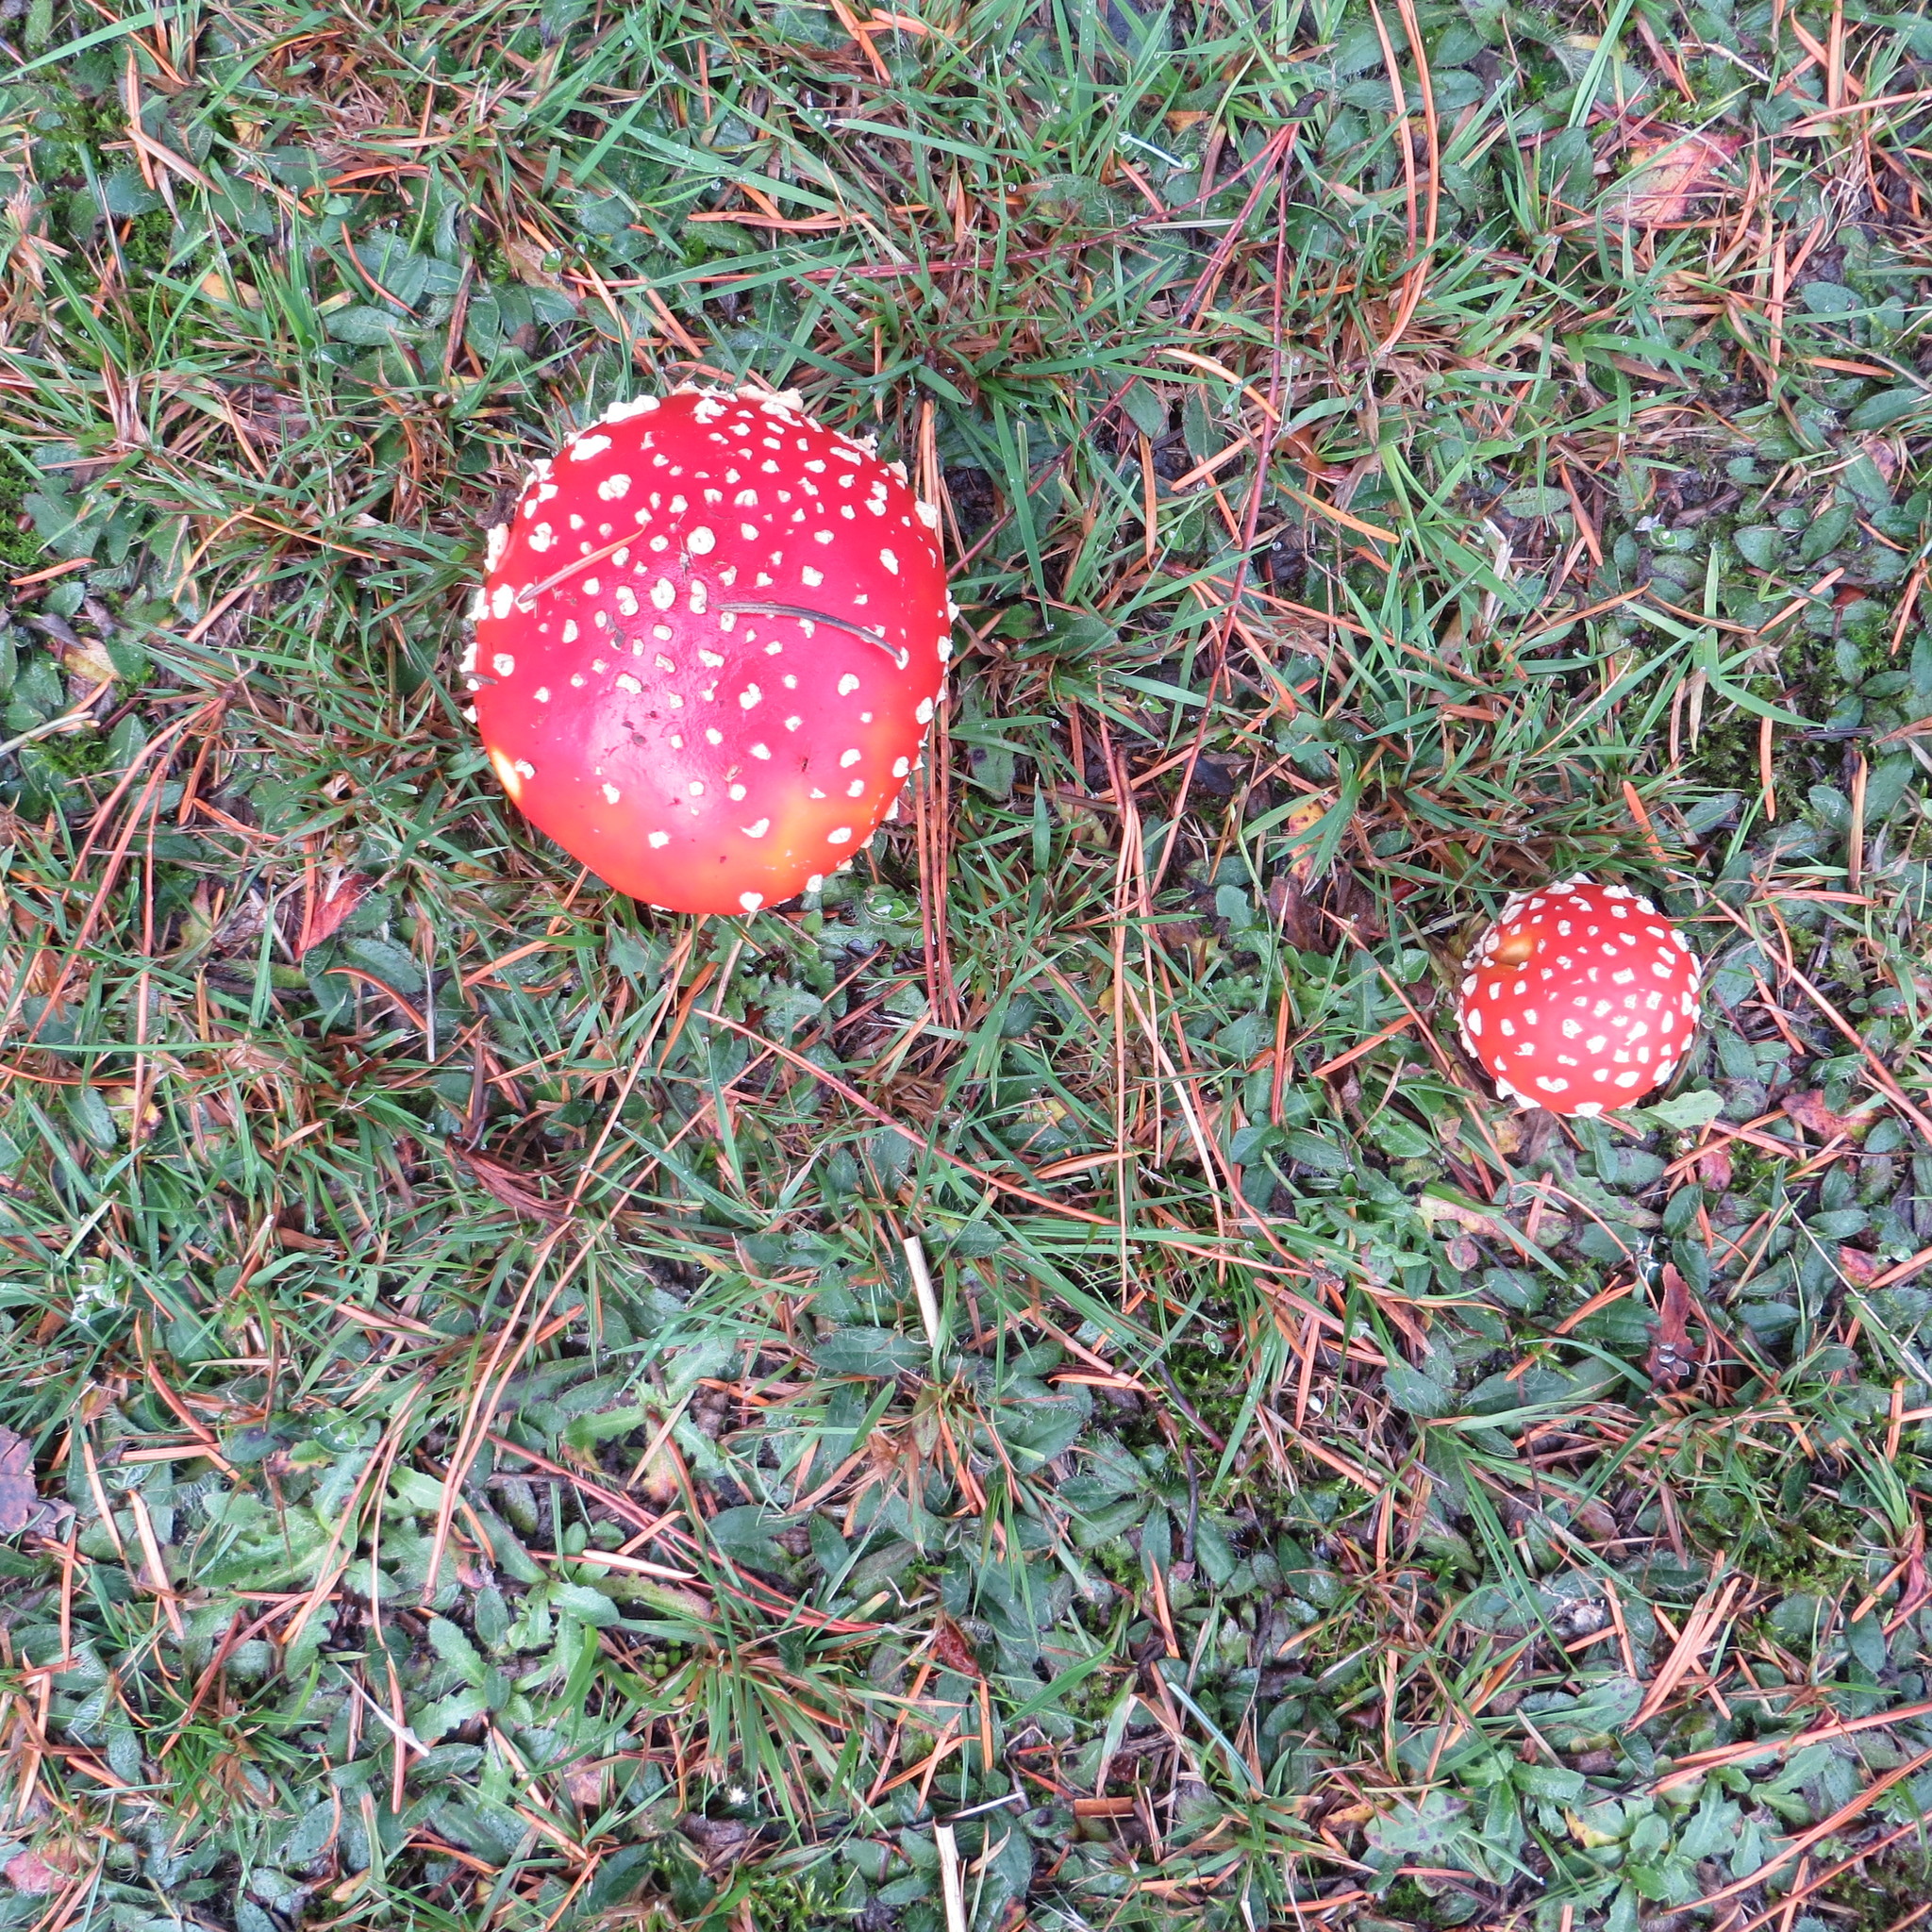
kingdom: Fungi
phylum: Basidiomycota
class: Agaricomycetes
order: Agaricales
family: Amanitaceae
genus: Amanita
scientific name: Amanita muscaria
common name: Fly agaric
